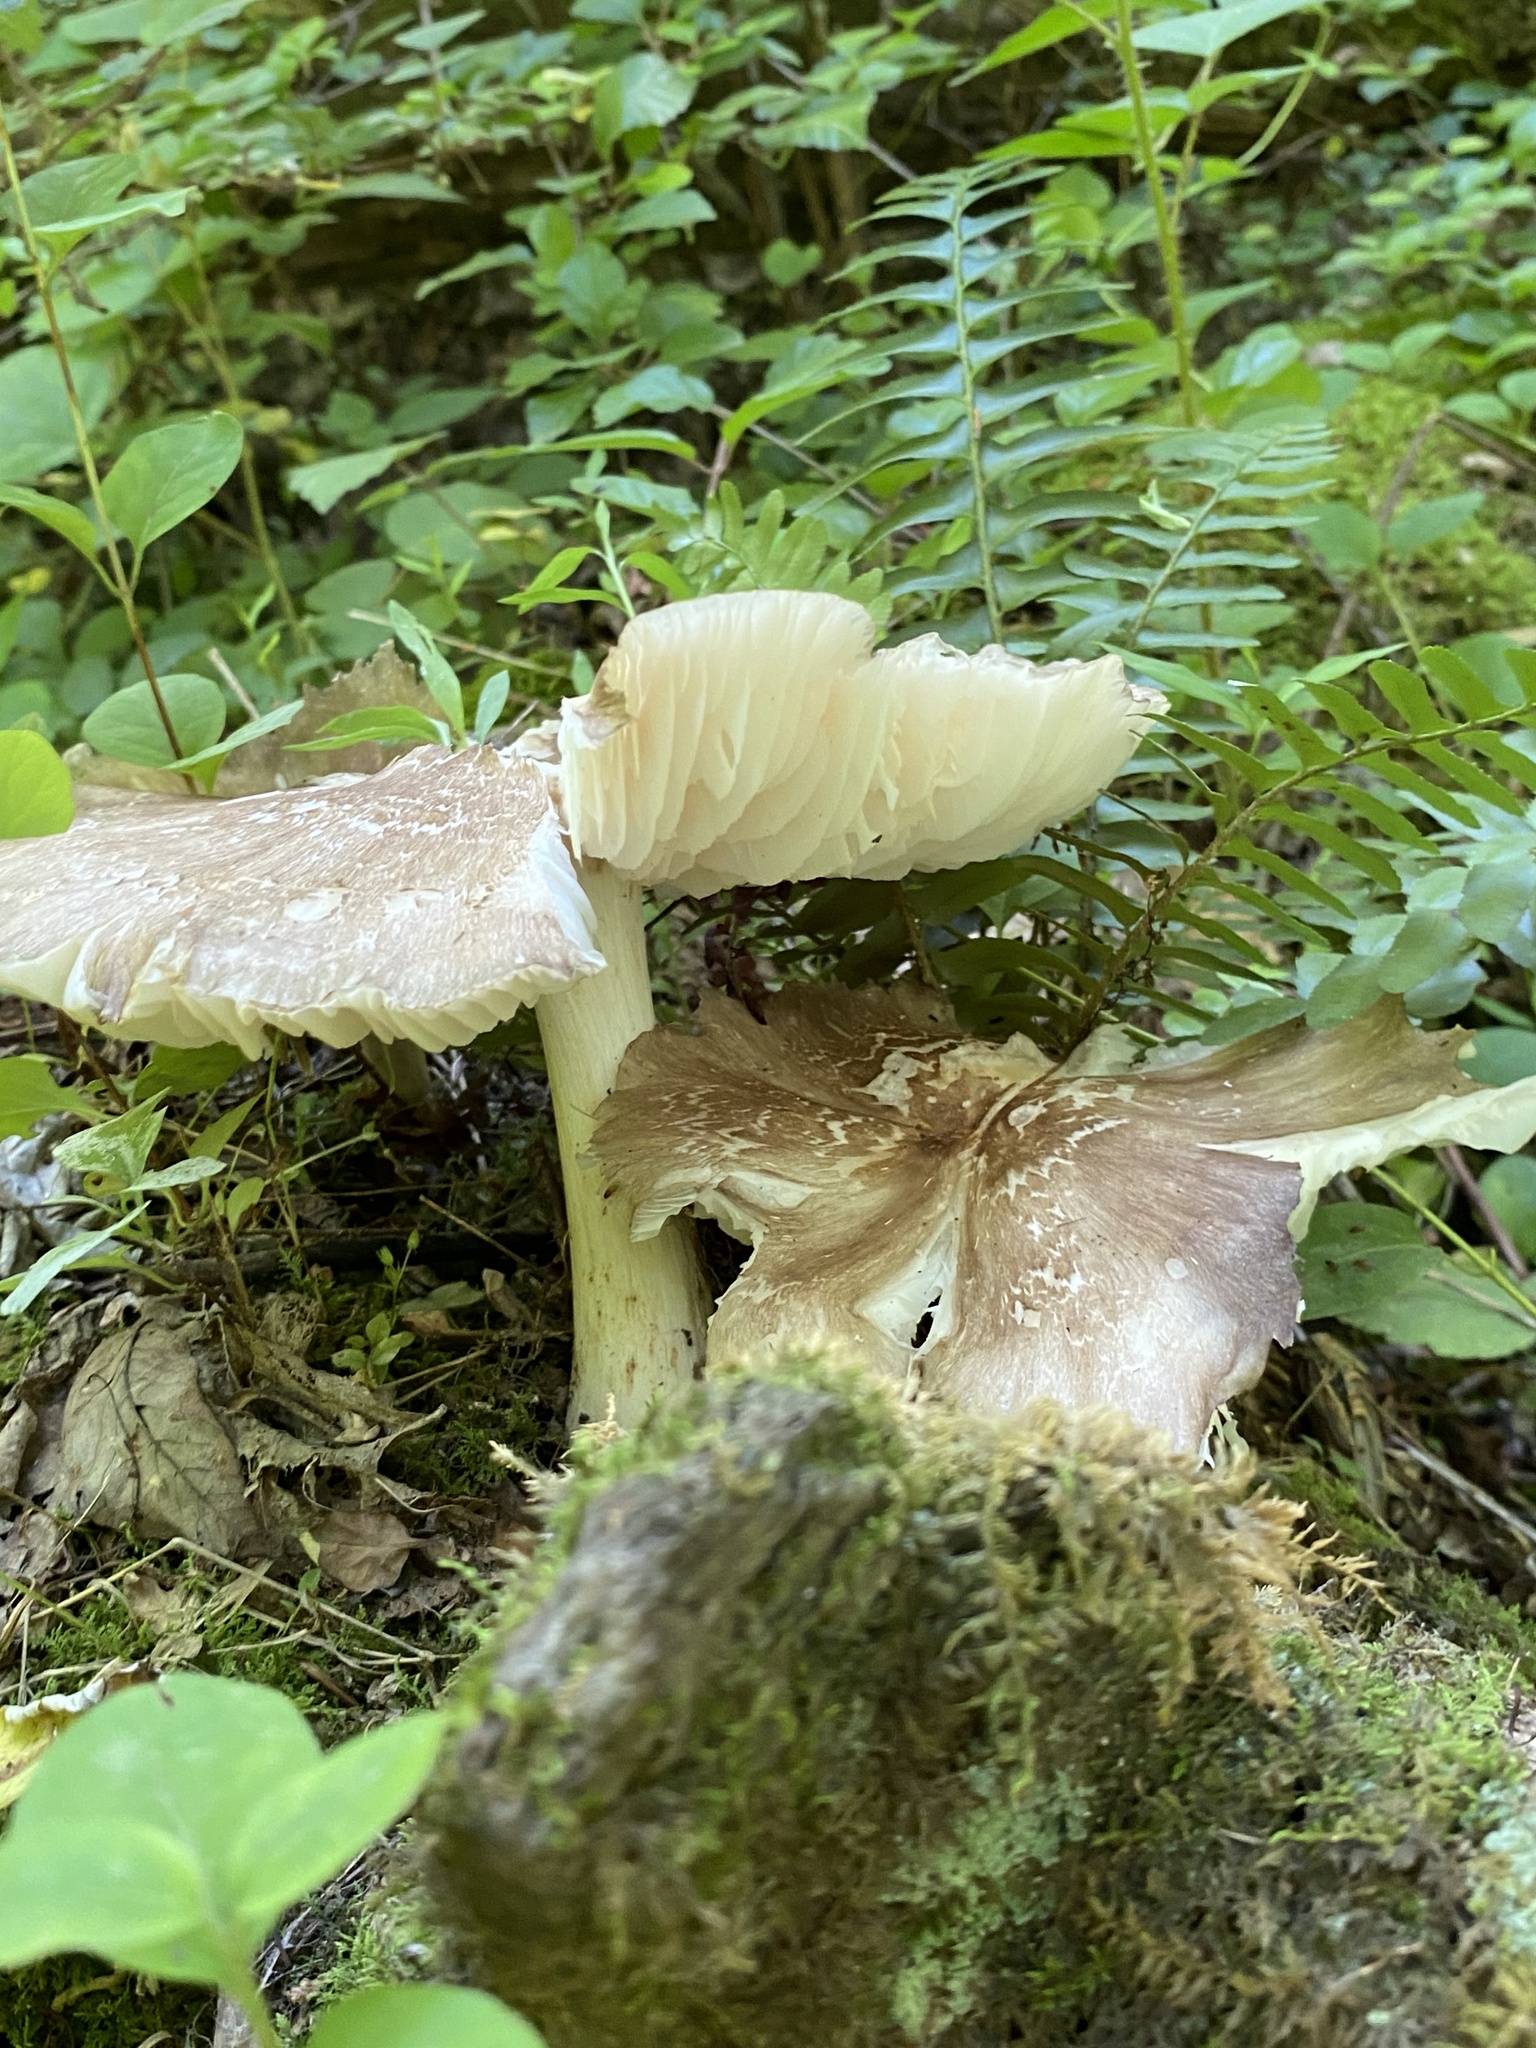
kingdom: Fungi
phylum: Basidiomycota
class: Agaricomycetes
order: Agaricales
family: Tricholomataceae
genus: Megacollybia
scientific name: Megacollybia rodmanii
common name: Eastern american platterful mushroom
